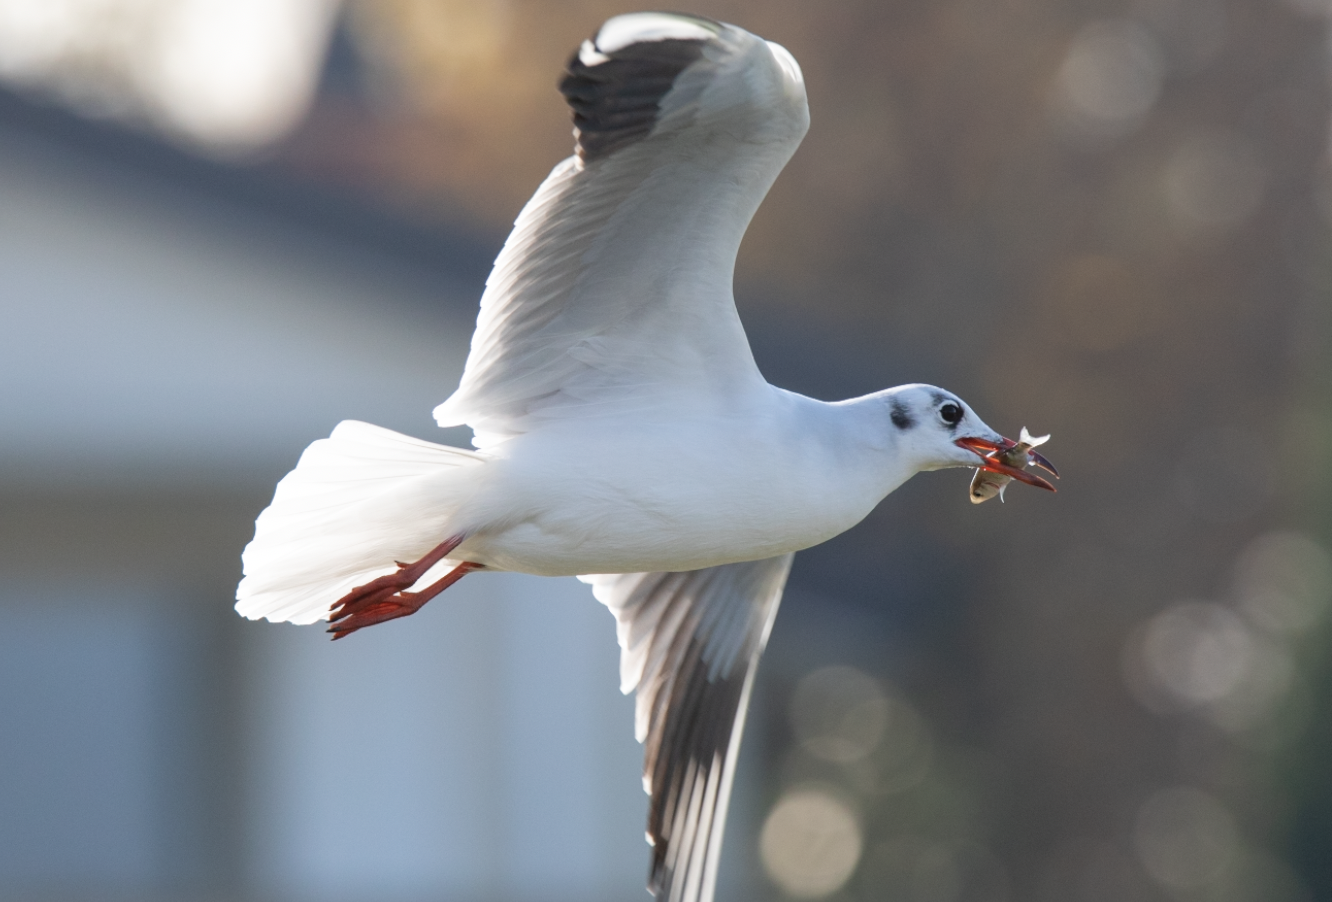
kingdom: Animalia
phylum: Chordata
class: Aves
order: Charadriiformes
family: Laridae
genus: Chroicocephalus
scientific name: Chroicocephalus ridibundus
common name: Black-headed gull
